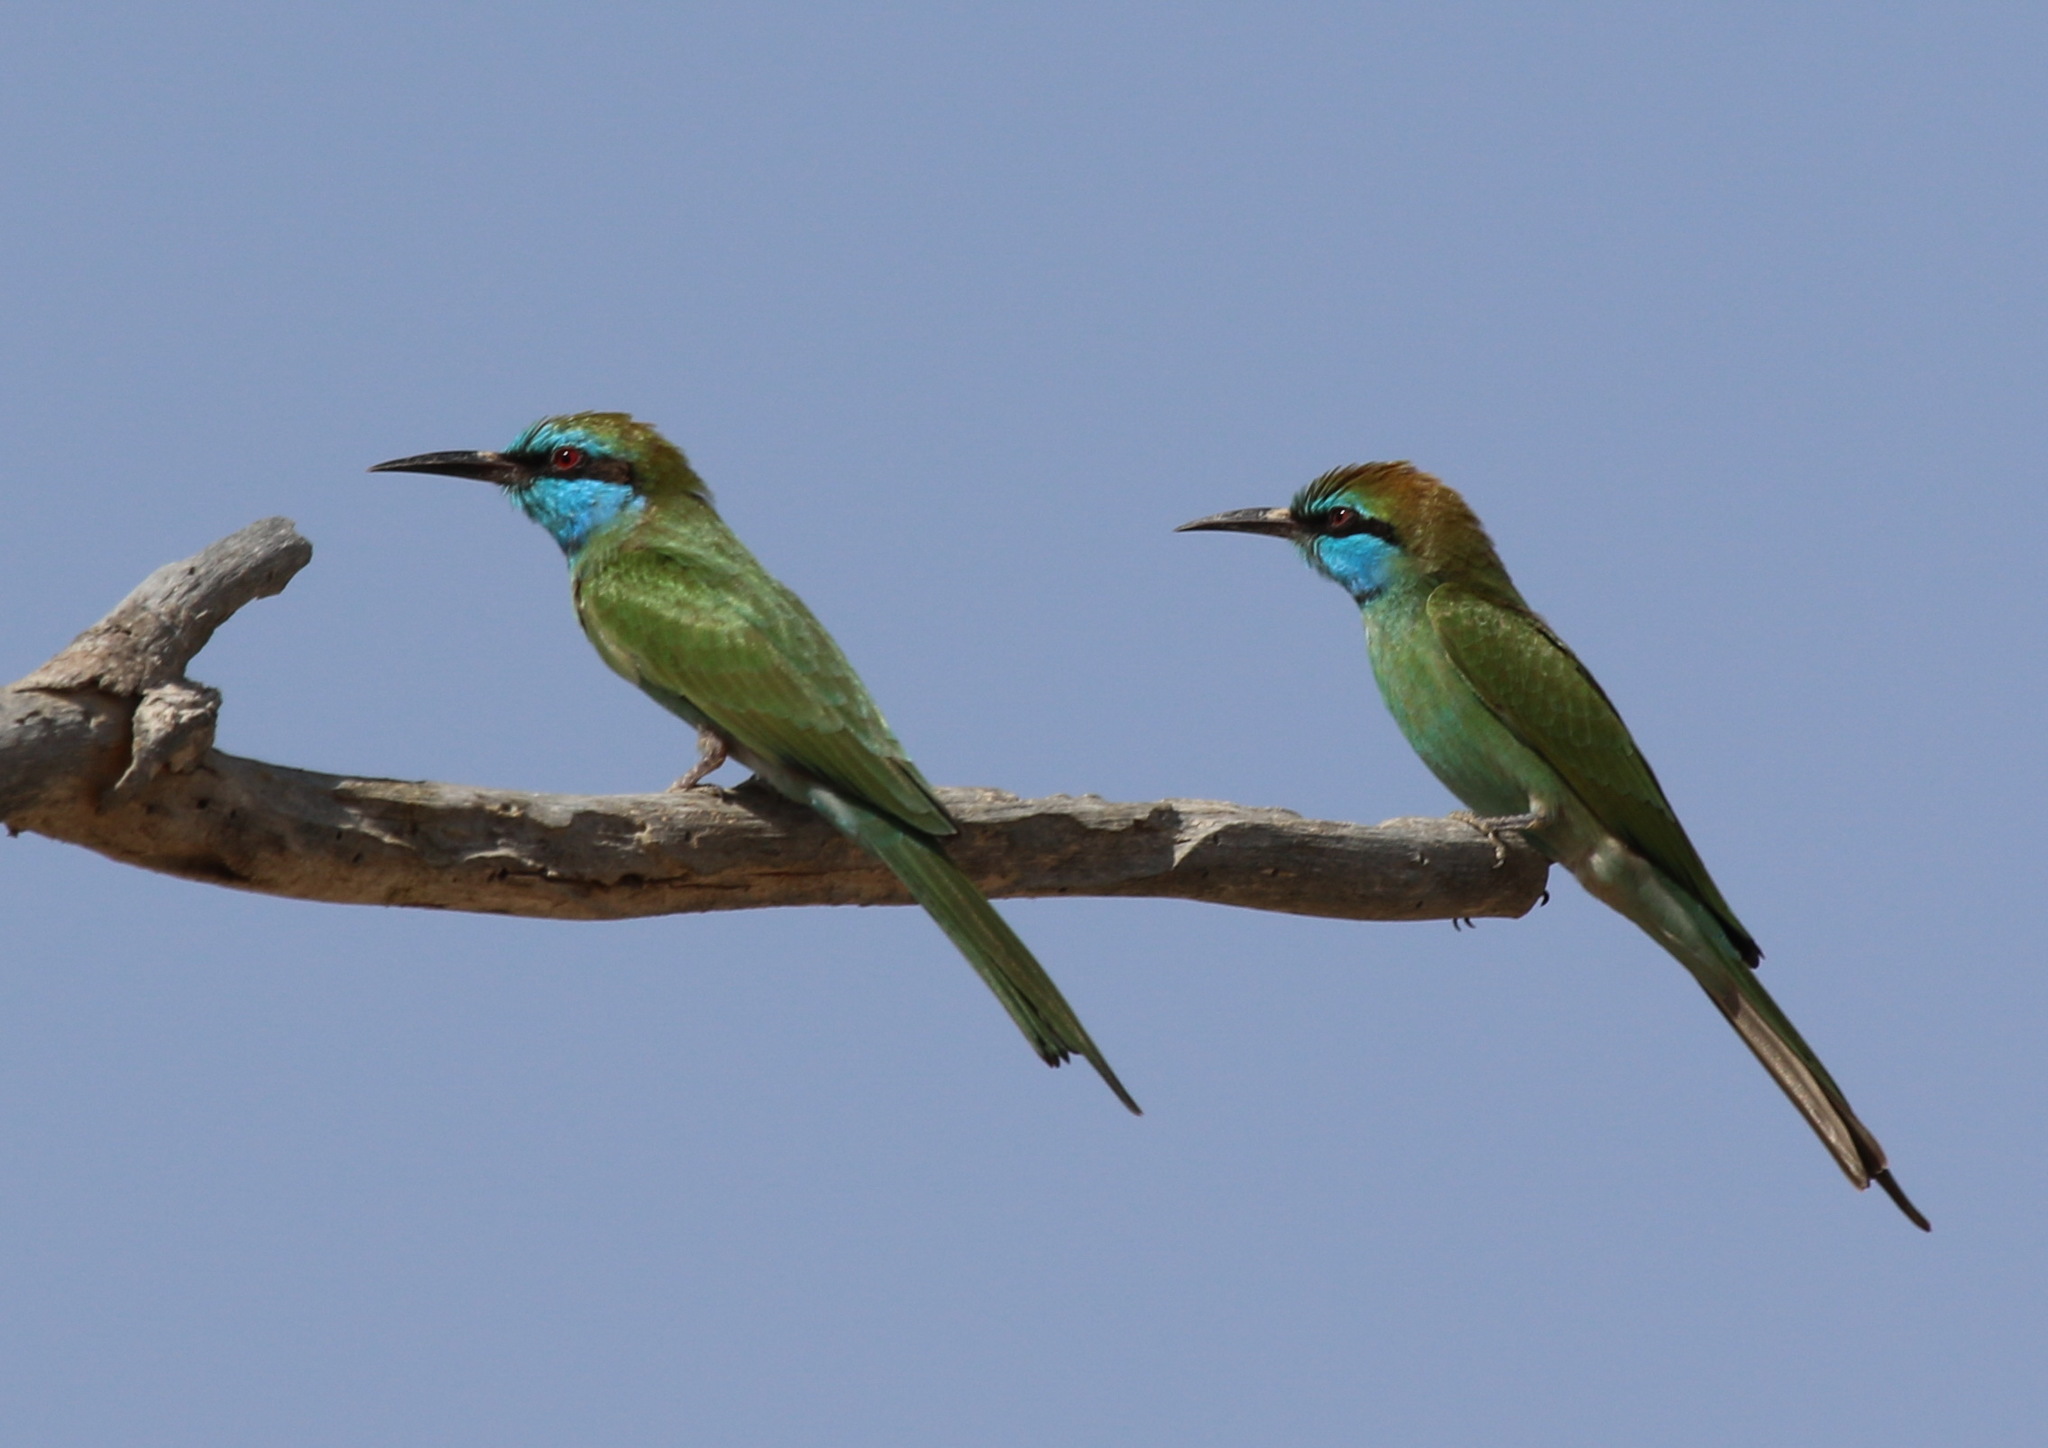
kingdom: Animalia
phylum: Chordata
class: Aves
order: Coraciiformes
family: Meropidae
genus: Merops
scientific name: Merops cyanophrys
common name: Arabian green bee-eater
